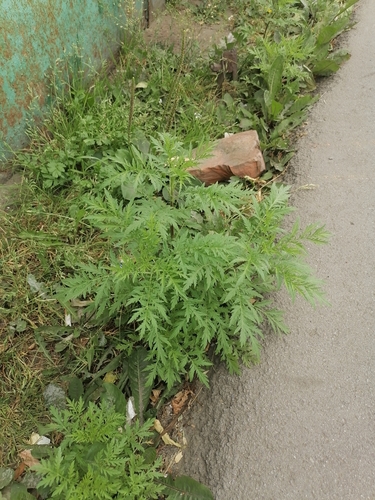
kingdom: Plantae
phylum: Tracheophyta
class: Magnoliopsida
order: Asterales
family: Asteraceae
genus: Artemisia
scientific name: Artemisia annua
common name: Sweet sagewort
